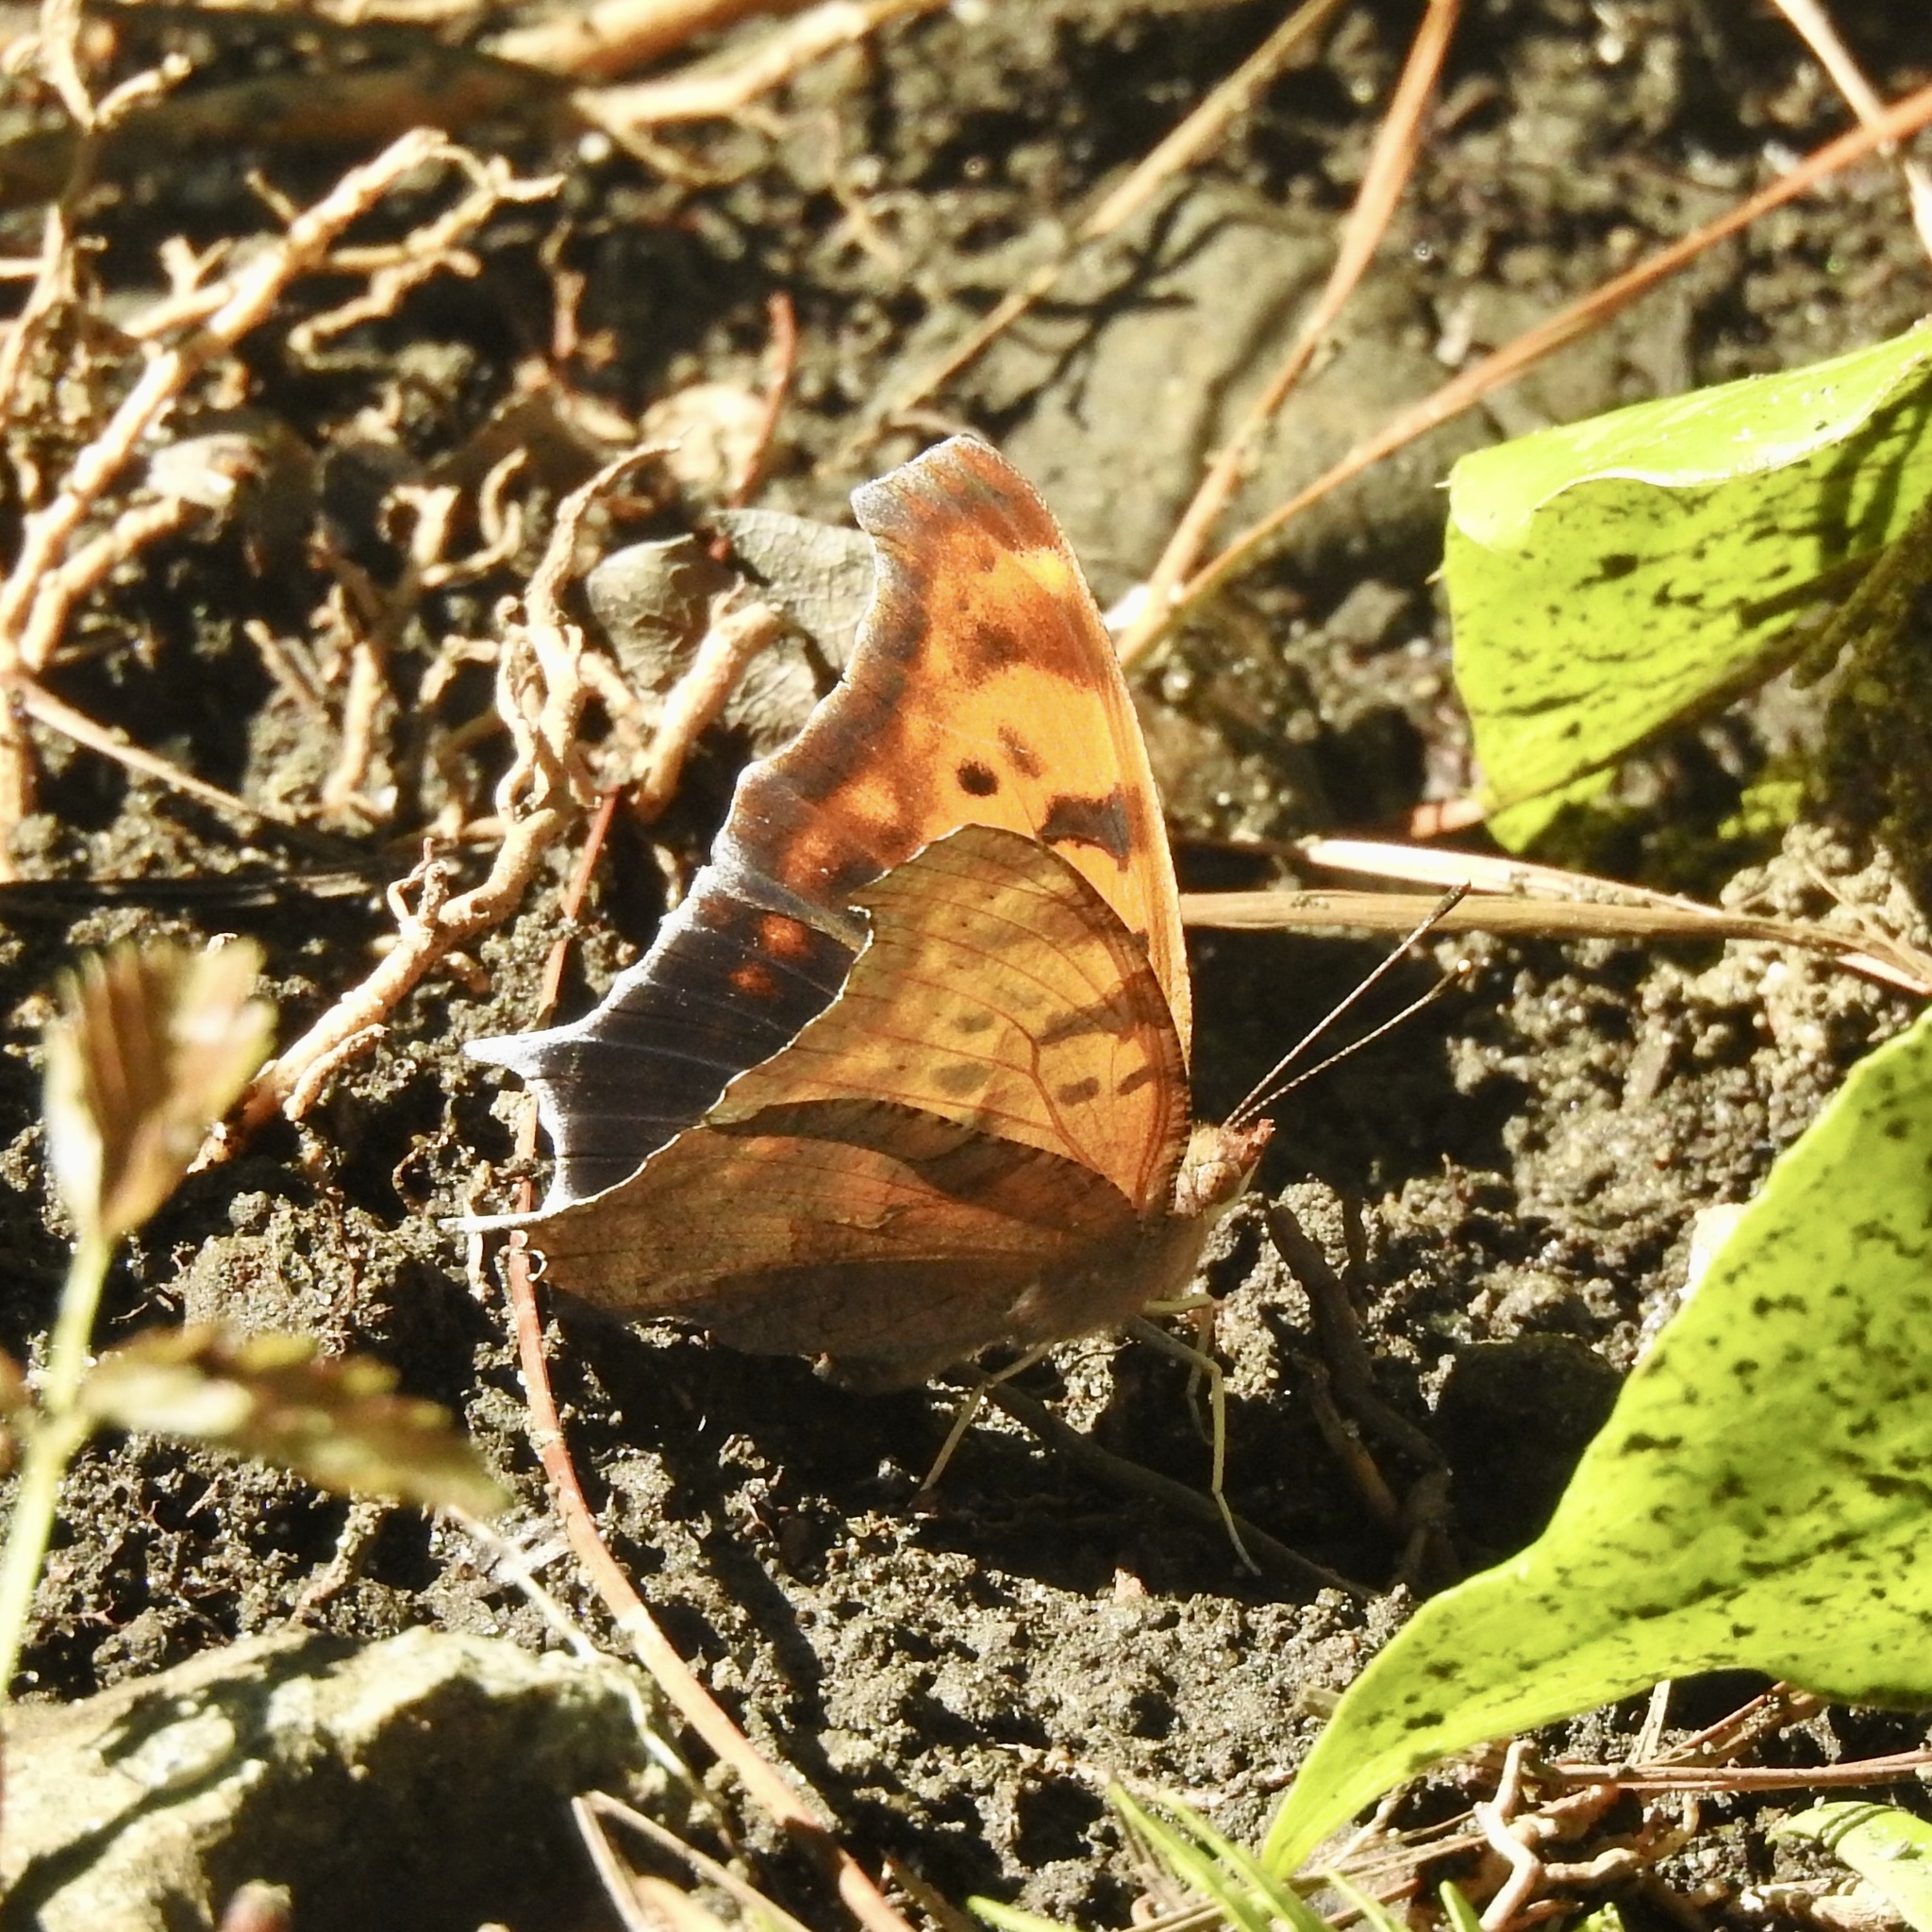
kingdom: Animalia
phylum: Arthropoda
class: Insecta
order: Lepidoptera
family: Nymphalidae
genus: Polygonia
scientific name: Polygonia interrogationis
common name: Question mark
